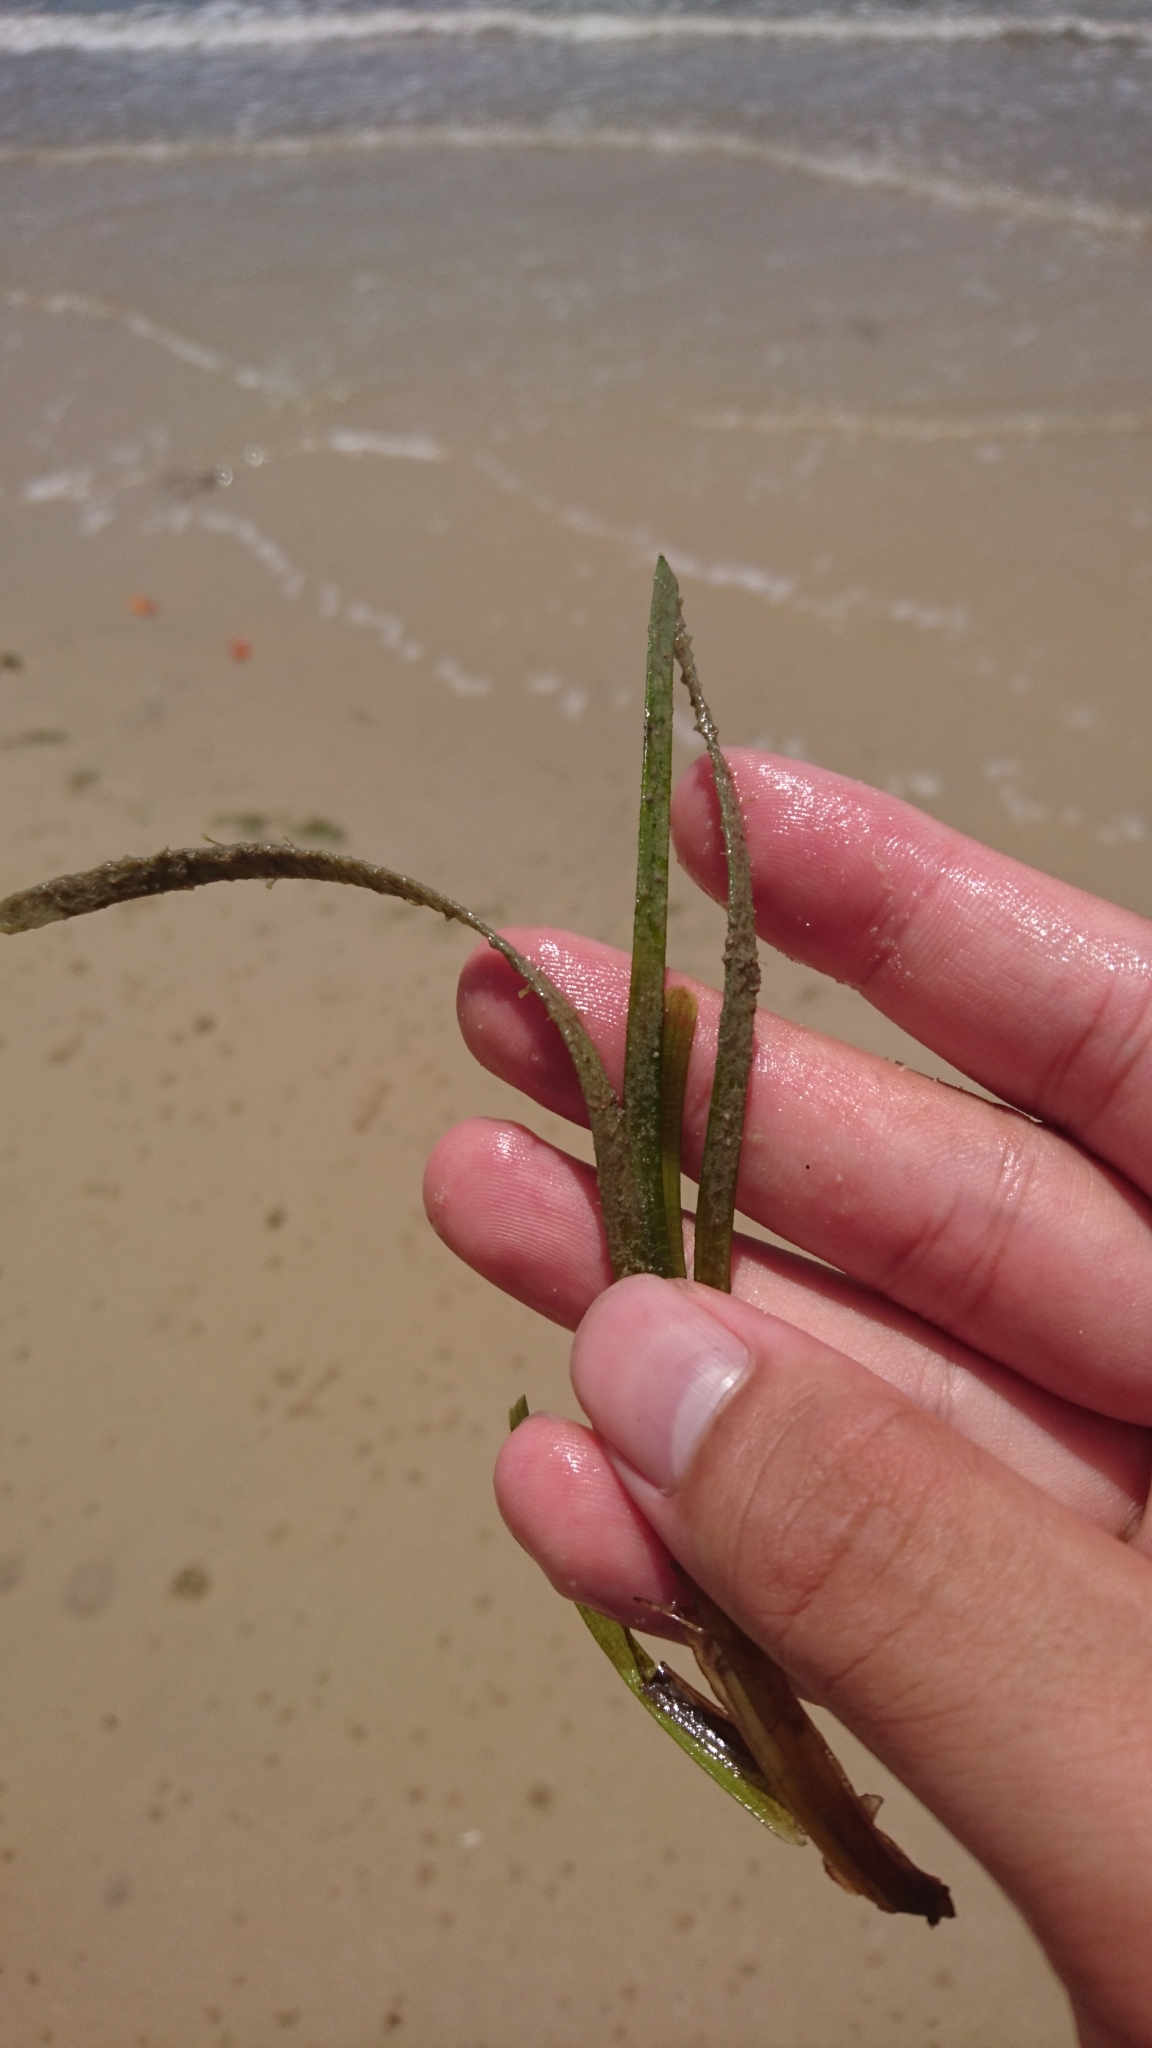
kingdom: Plantae
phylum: Tracheophyta
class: Liliopsida
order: Alismatales
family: Zosteraceae
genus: Zostera
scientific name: Zostera capricorni
